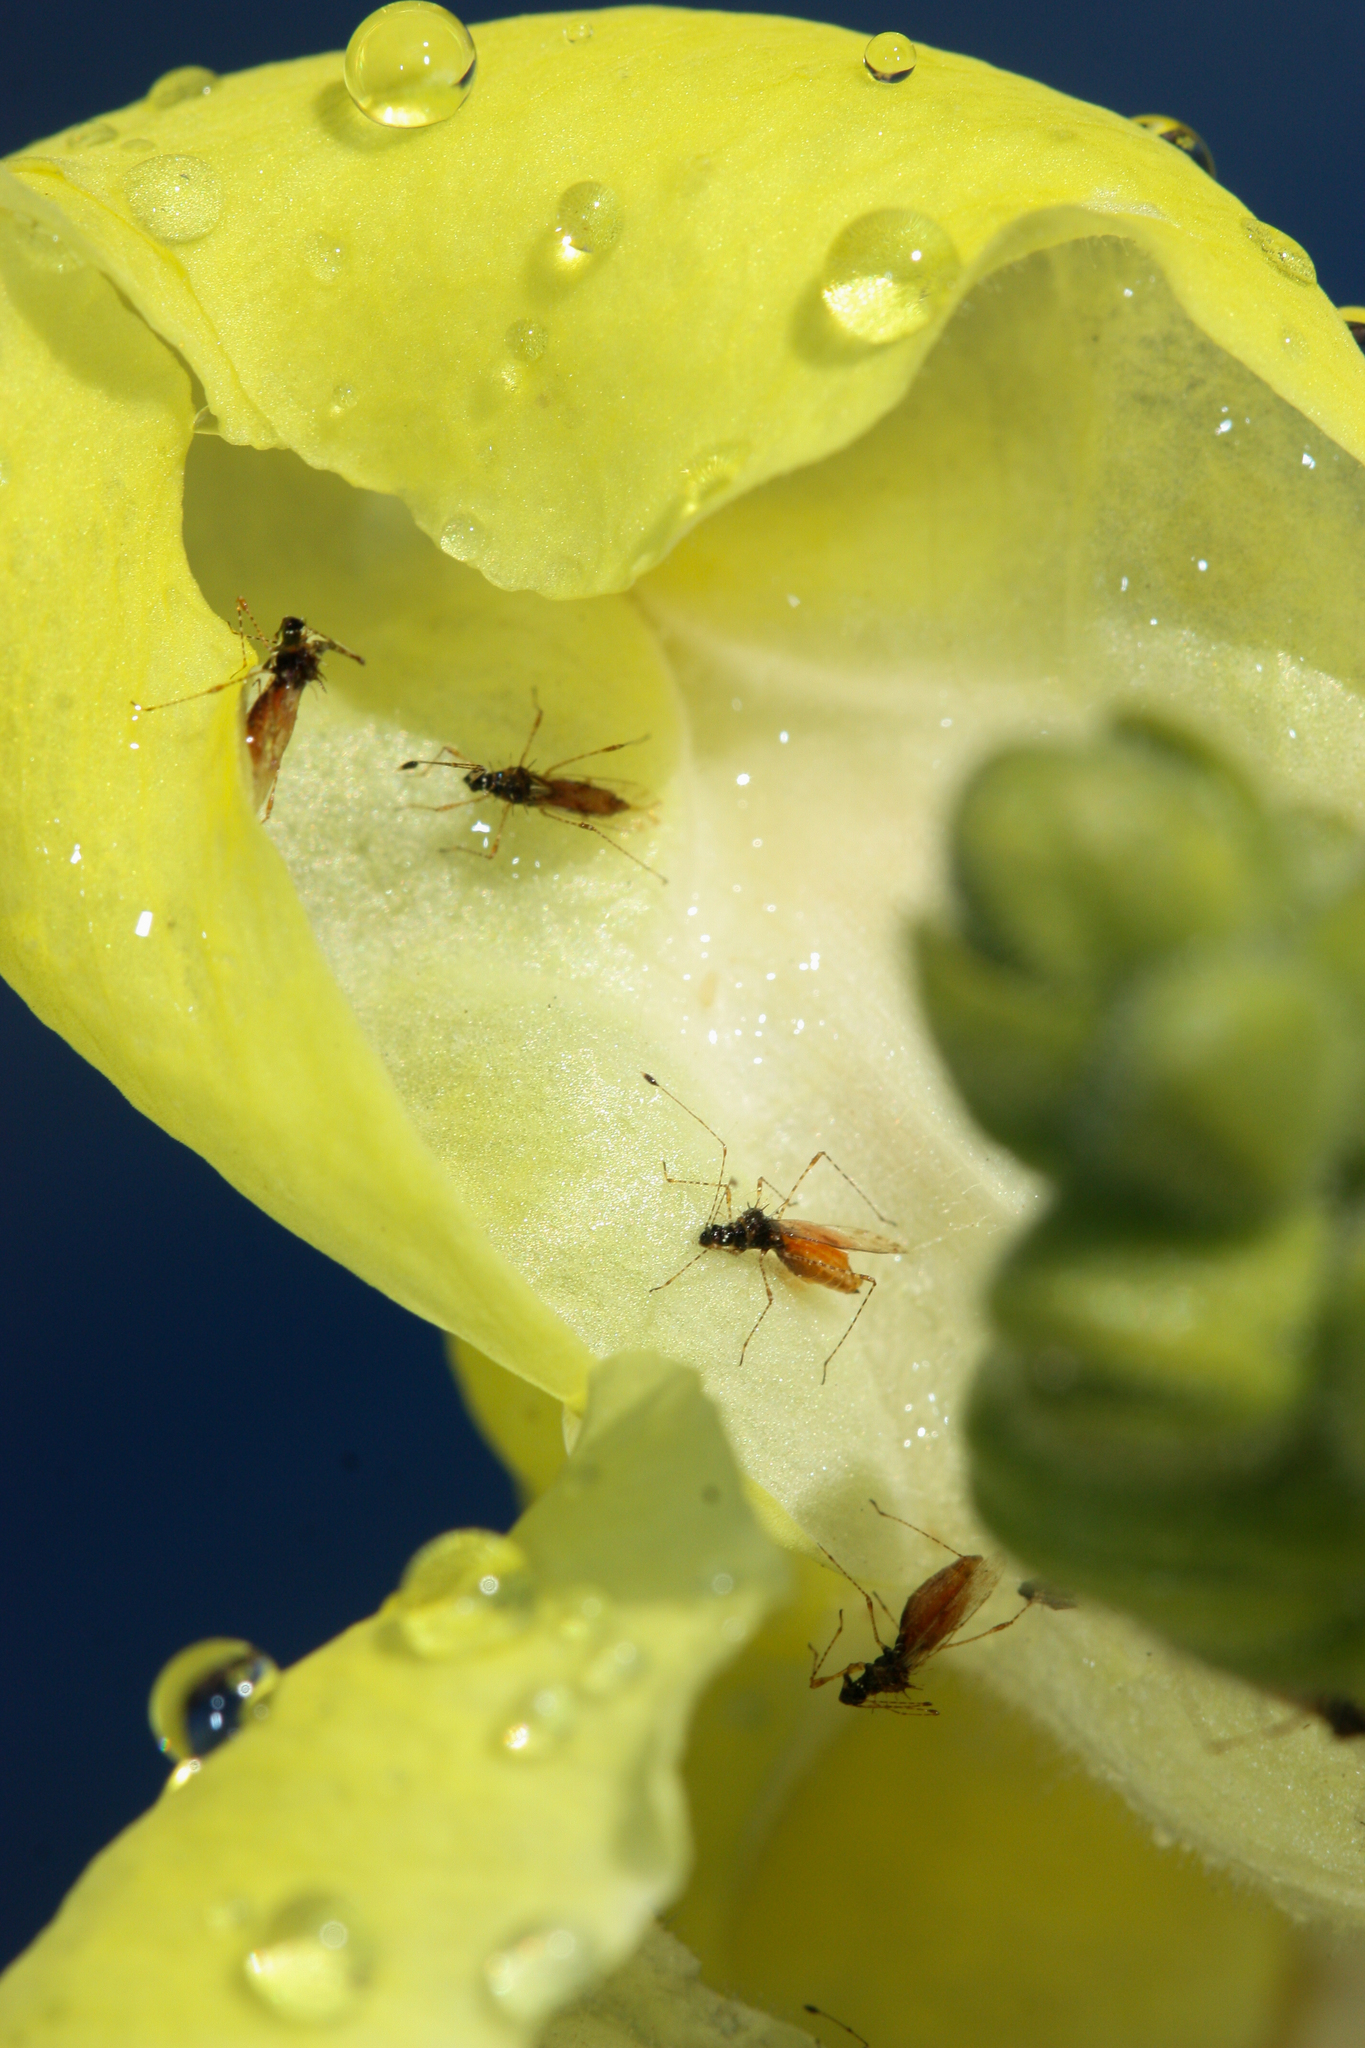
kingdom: Animalia
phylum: Arthropoda
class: Insecta
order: Hemiptera
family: Berytidae
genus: Pronotacantha
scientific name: Pronotacantha annulata
